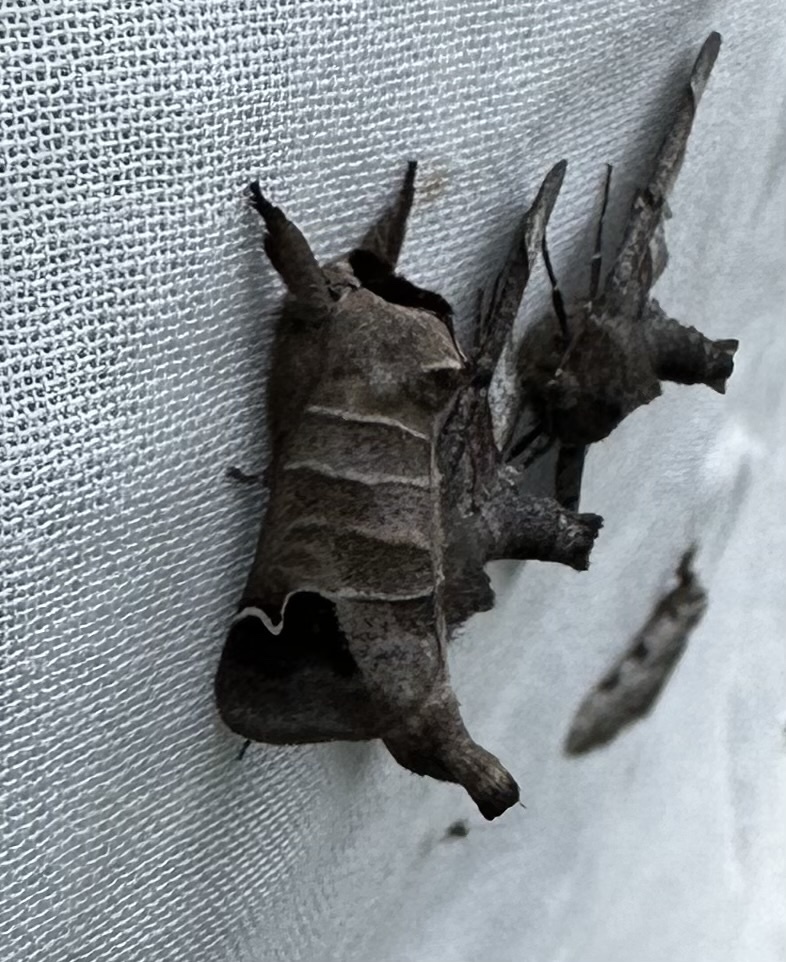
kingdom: Animalia
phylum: Arthropoda
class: Insecta
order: Lepidoptera
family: Notodontidae
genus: Clostera
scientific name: Clostera albosigma
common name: Sigmoid prominent
